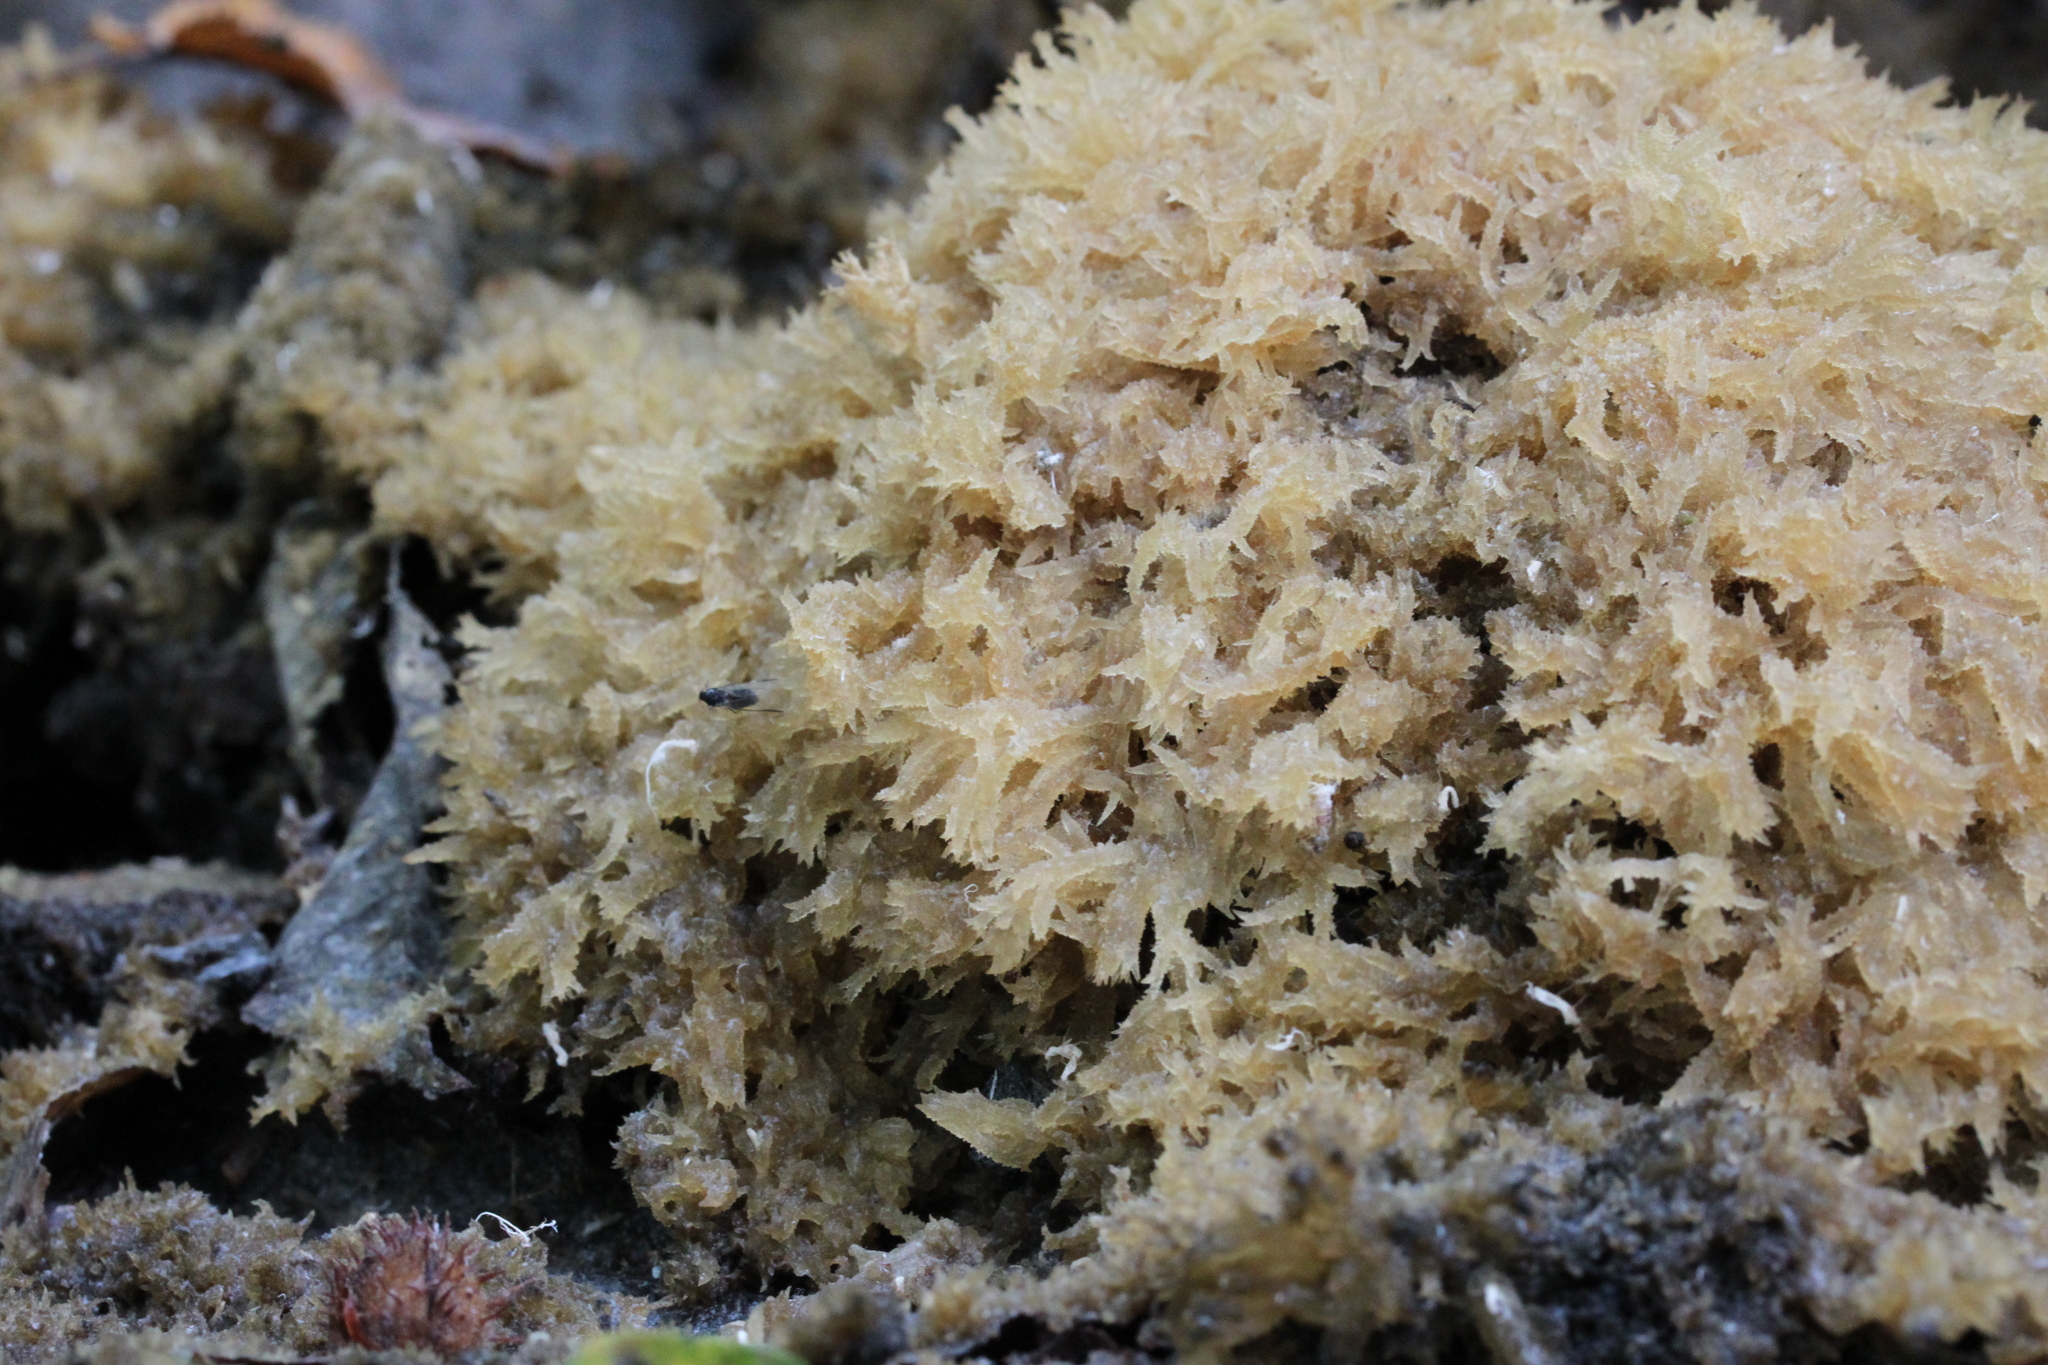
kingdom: Fungi
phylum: Ascomycota
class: Dothideomycetes
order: Capnodiales
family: Capnodiaceae
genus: Scorias
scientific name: Scorias spongiosa
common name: Black sooty mold
